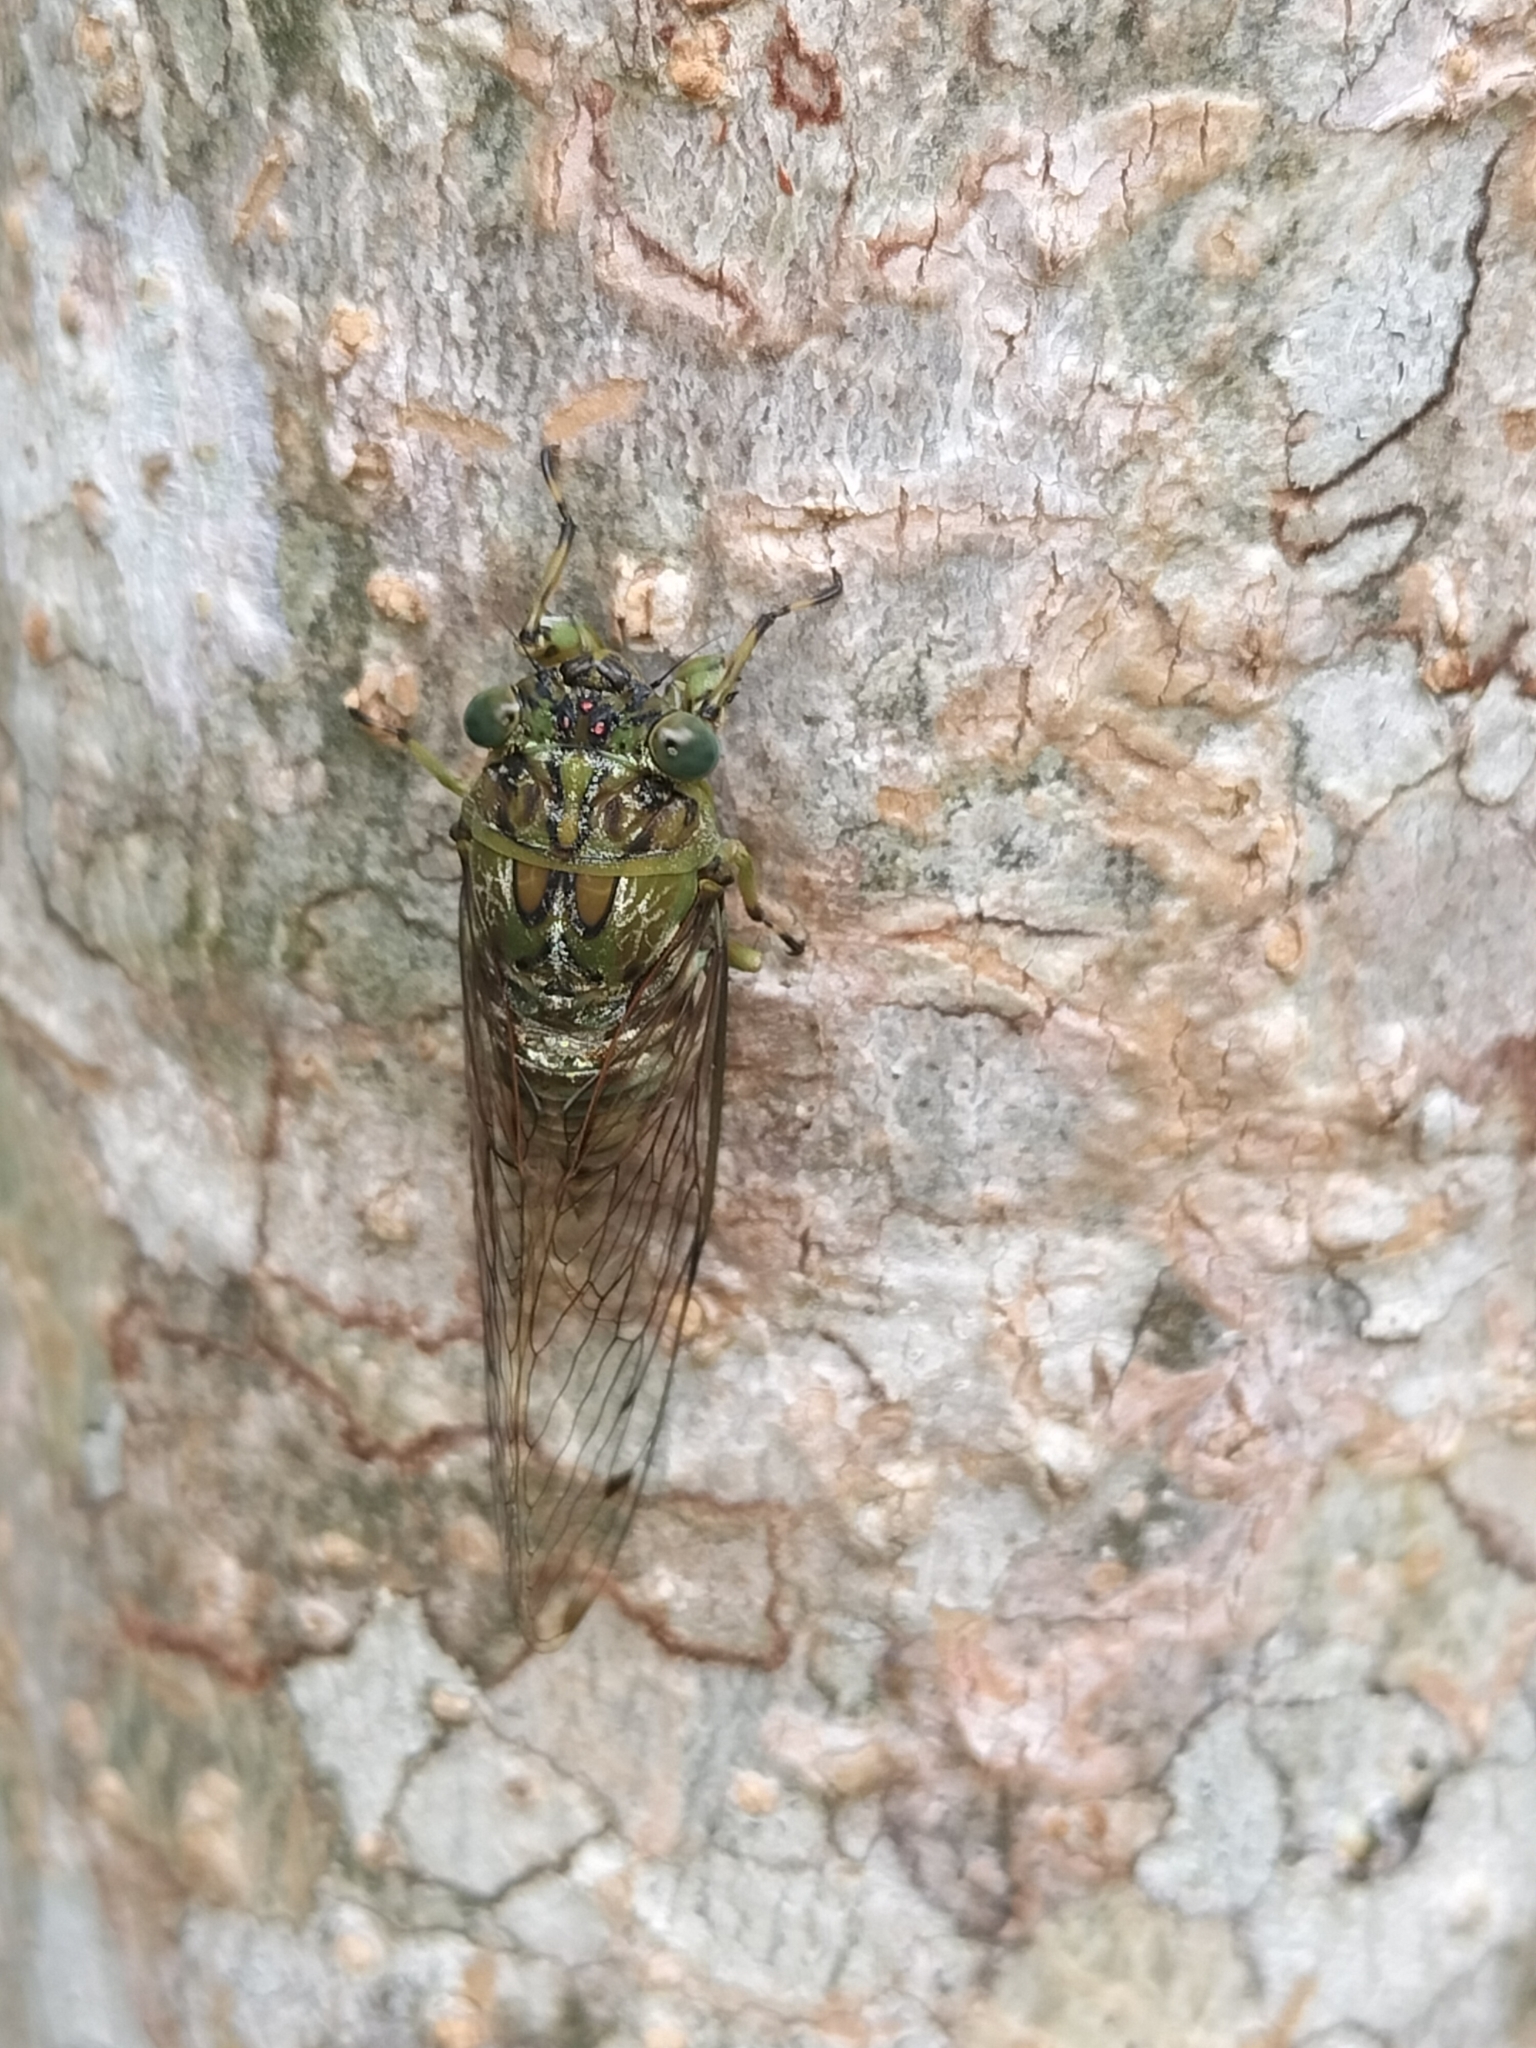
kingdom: Animalia
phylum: Arthropoda
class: Insecta
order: Hemiptera
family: Cicadidae
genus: Tamasa
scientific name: Tamasa tristigma
